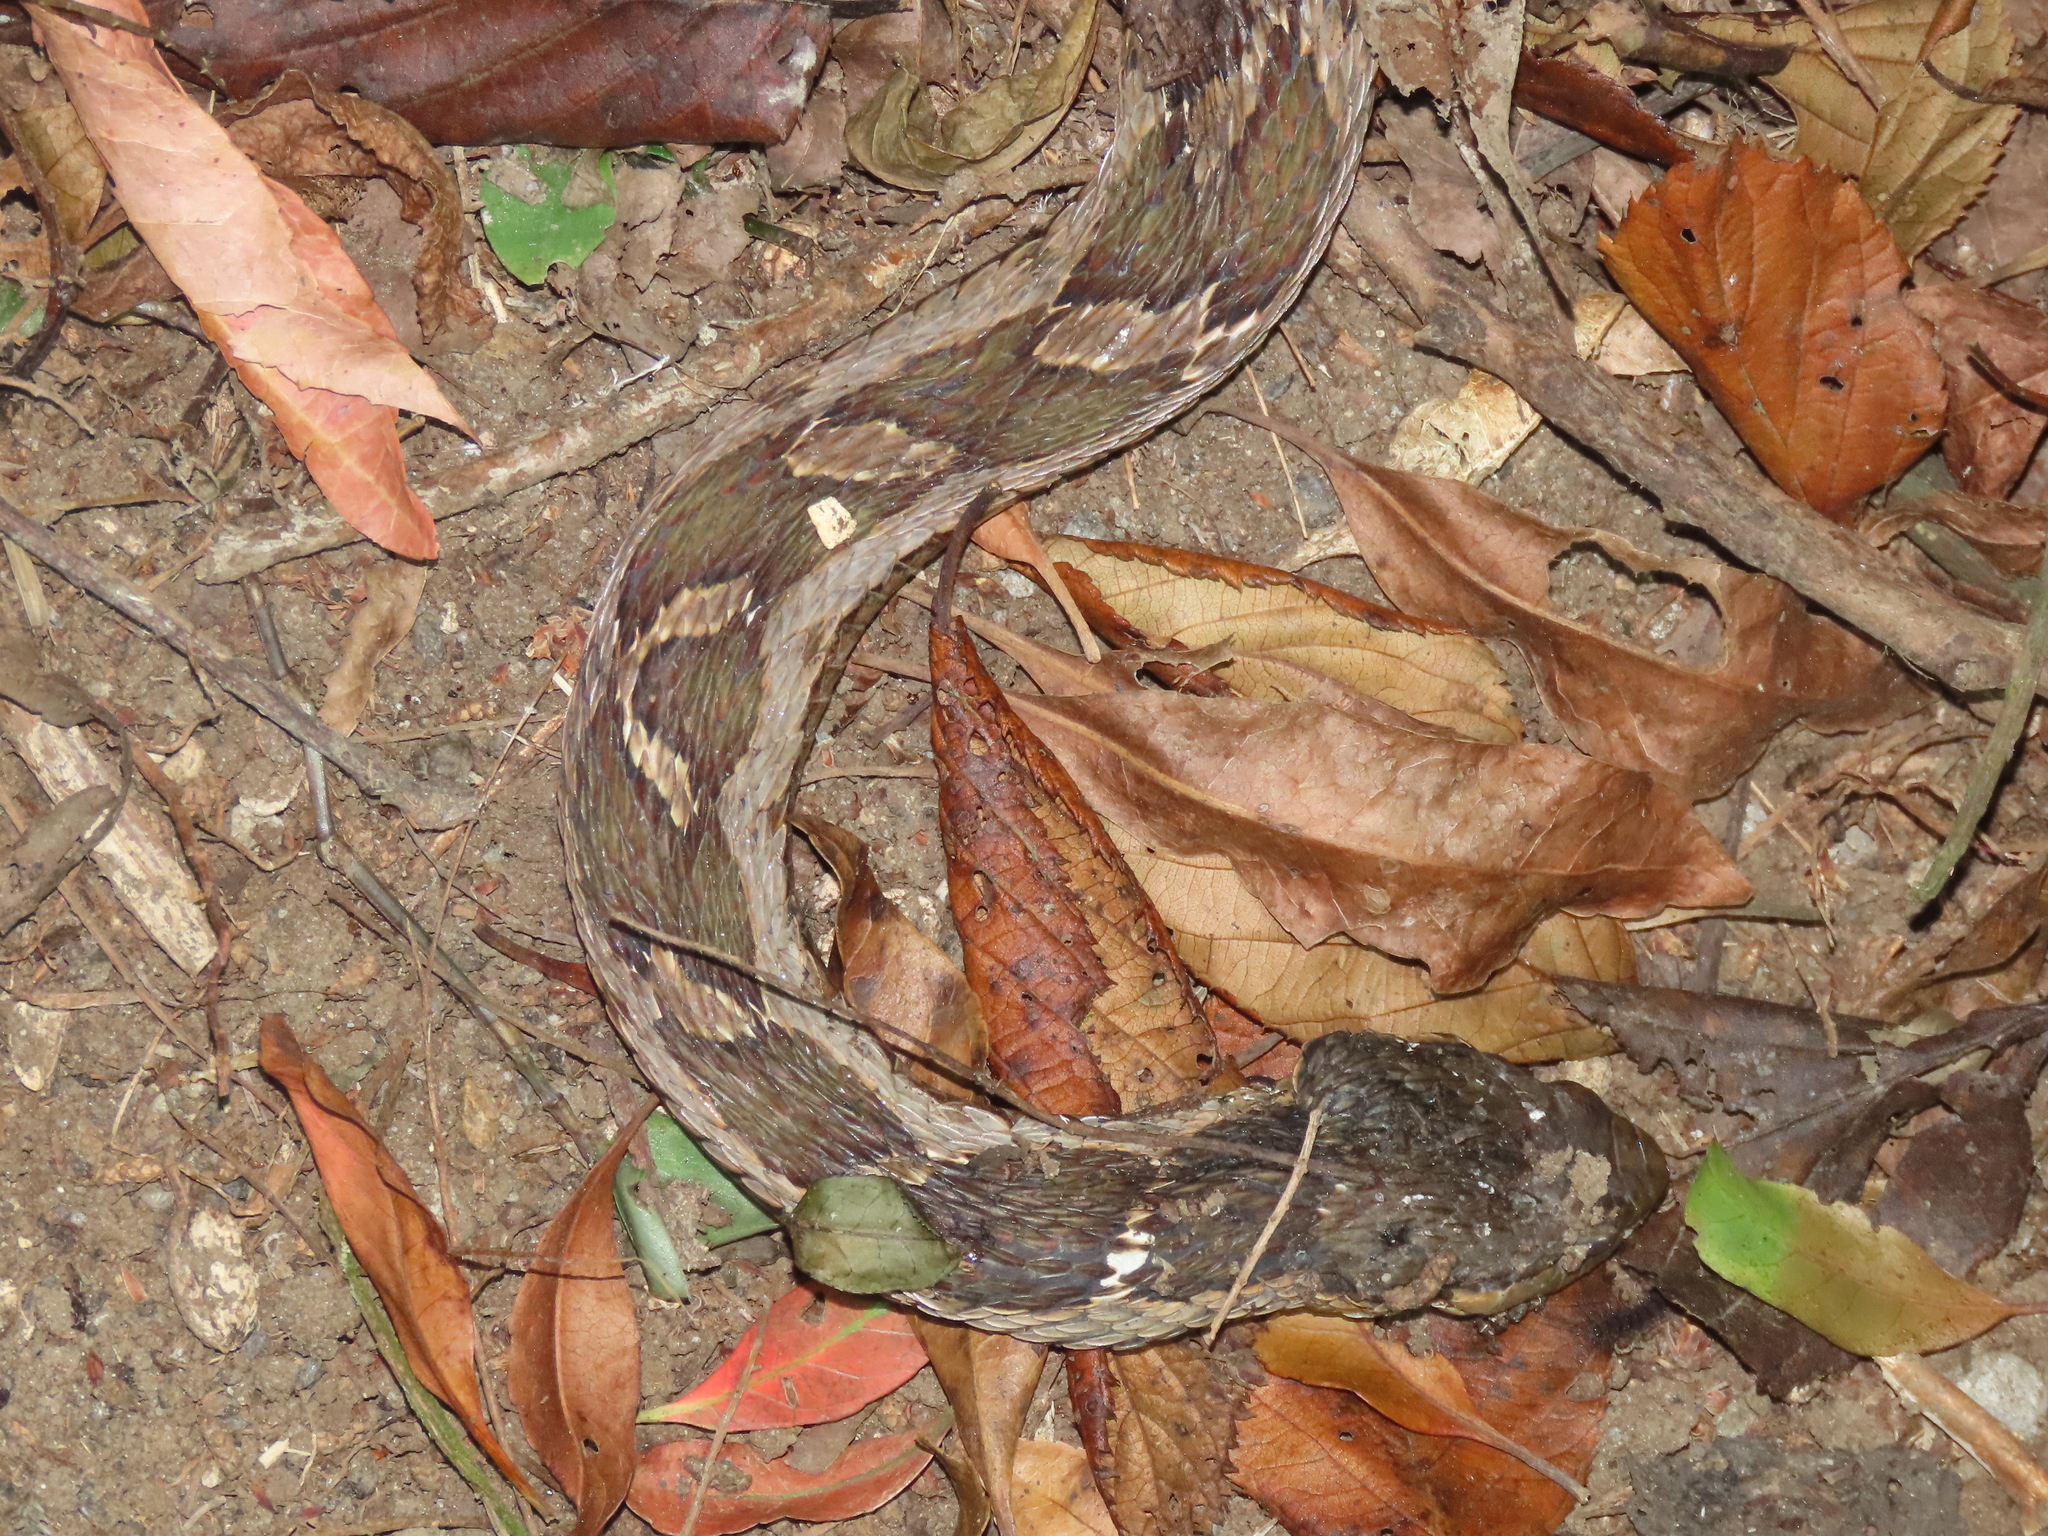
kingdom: Animalia
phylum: Chordata
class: Squamata
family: Colubridae
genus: Pseudagkistrodon
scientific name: Pseudagkistrodon rudis
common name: False habu
